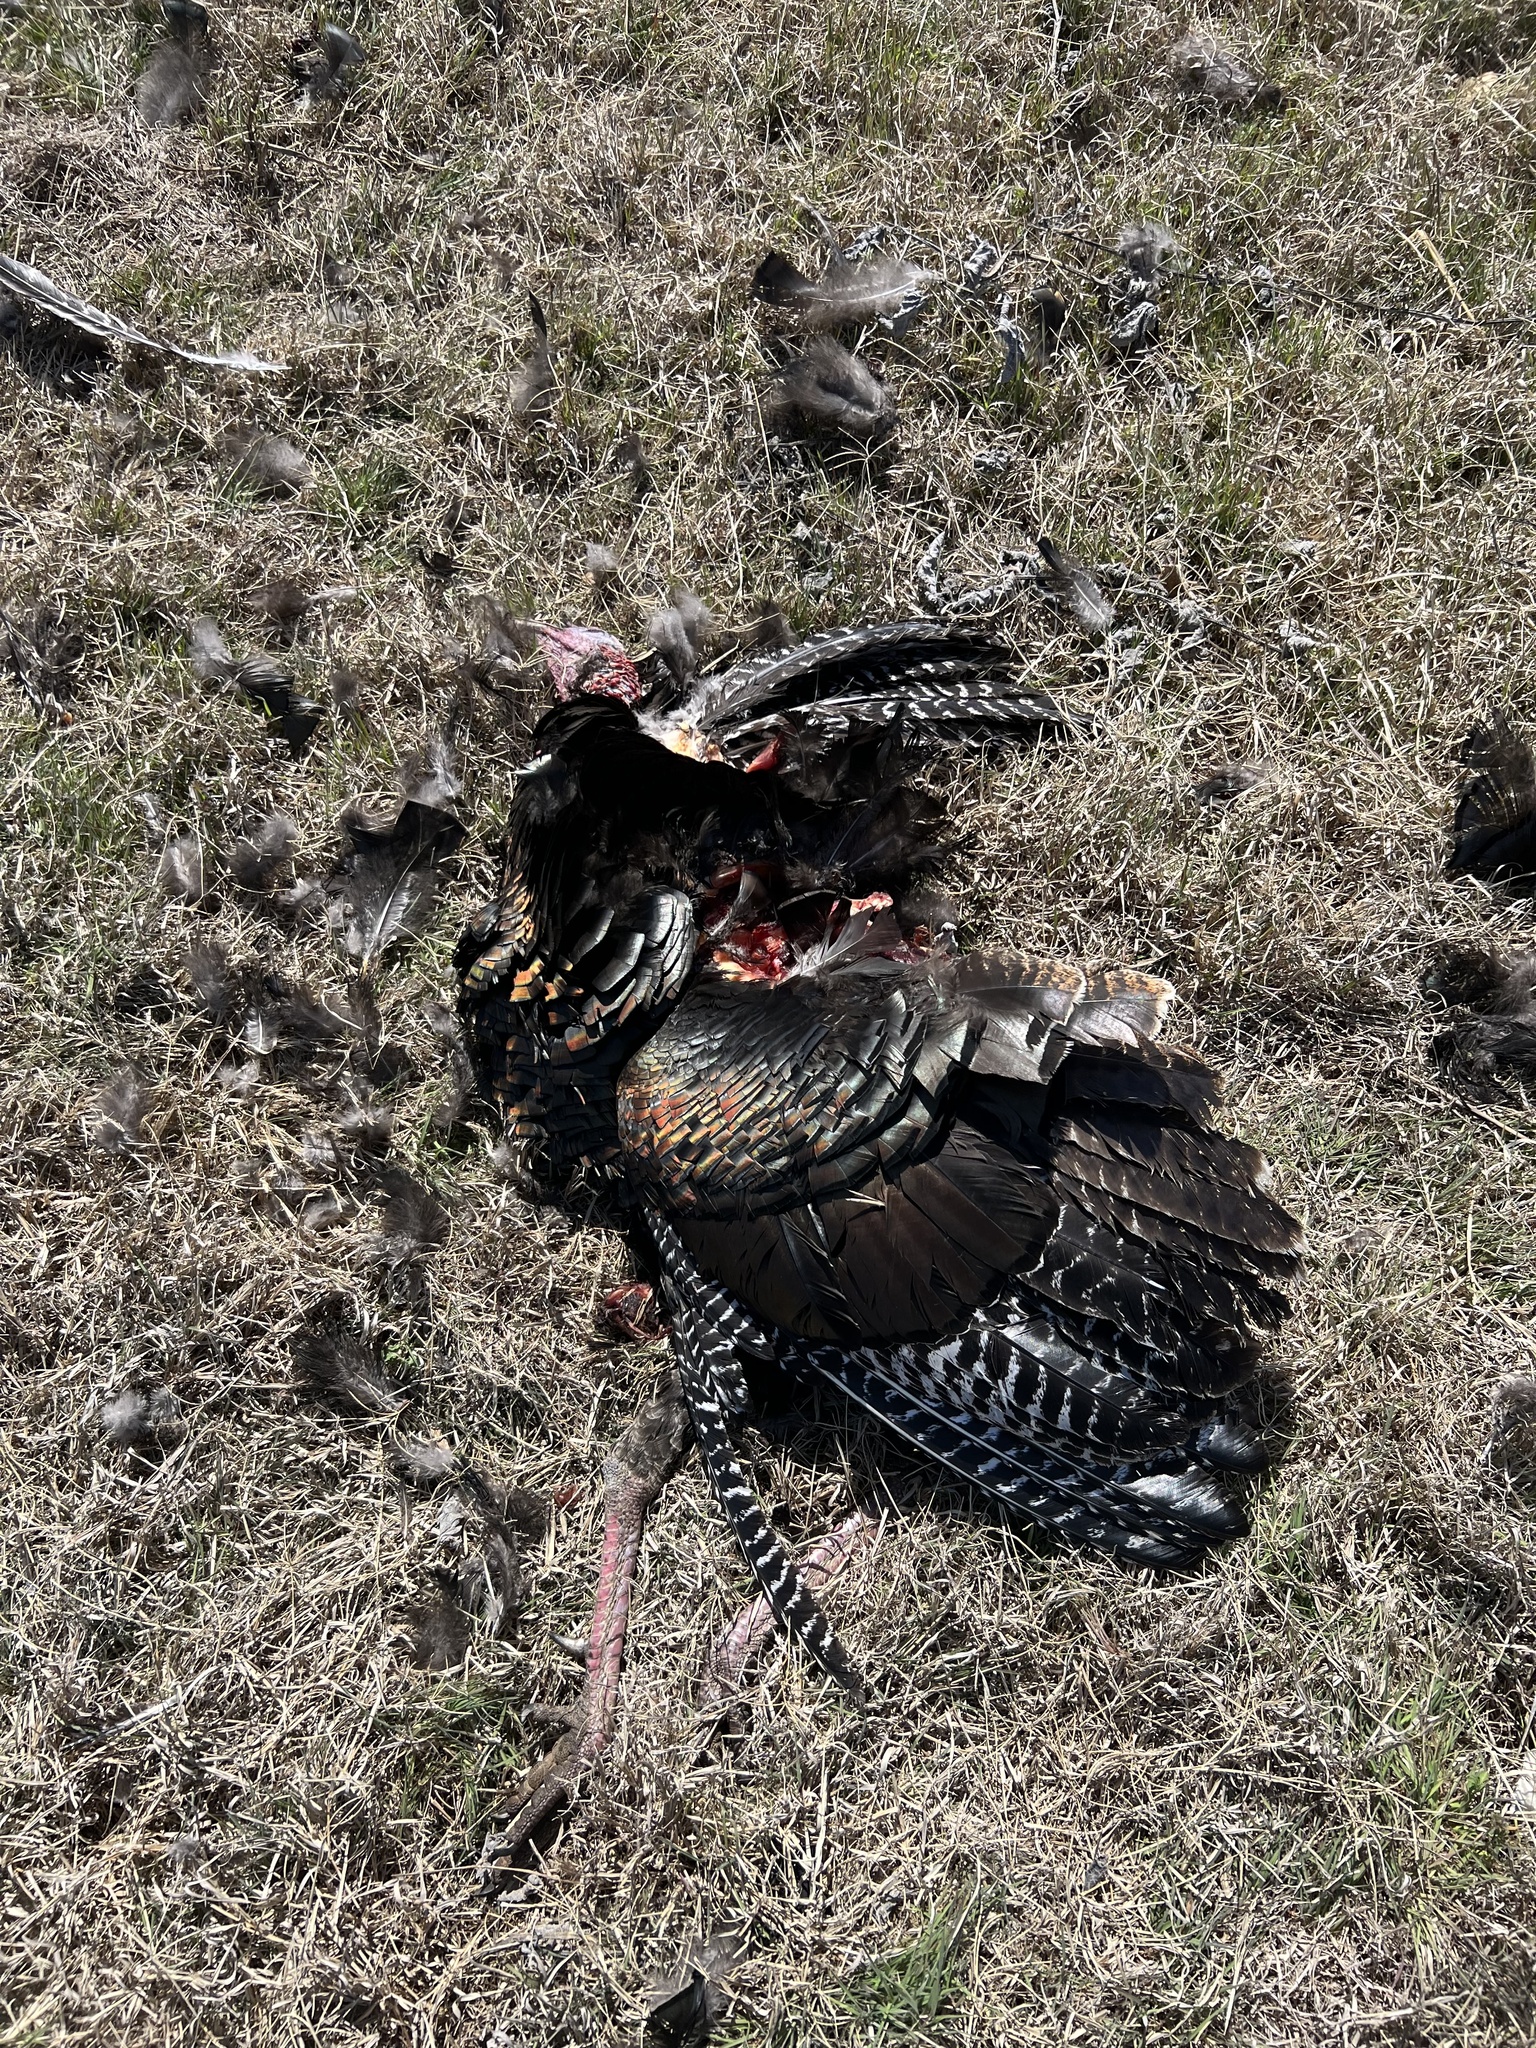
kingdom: Animalia
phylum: Chordata
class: Aves
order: Galliformes
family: Phasianidae
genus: Meleagris
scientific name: Meleagris gallopavo
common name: Wild turkey
